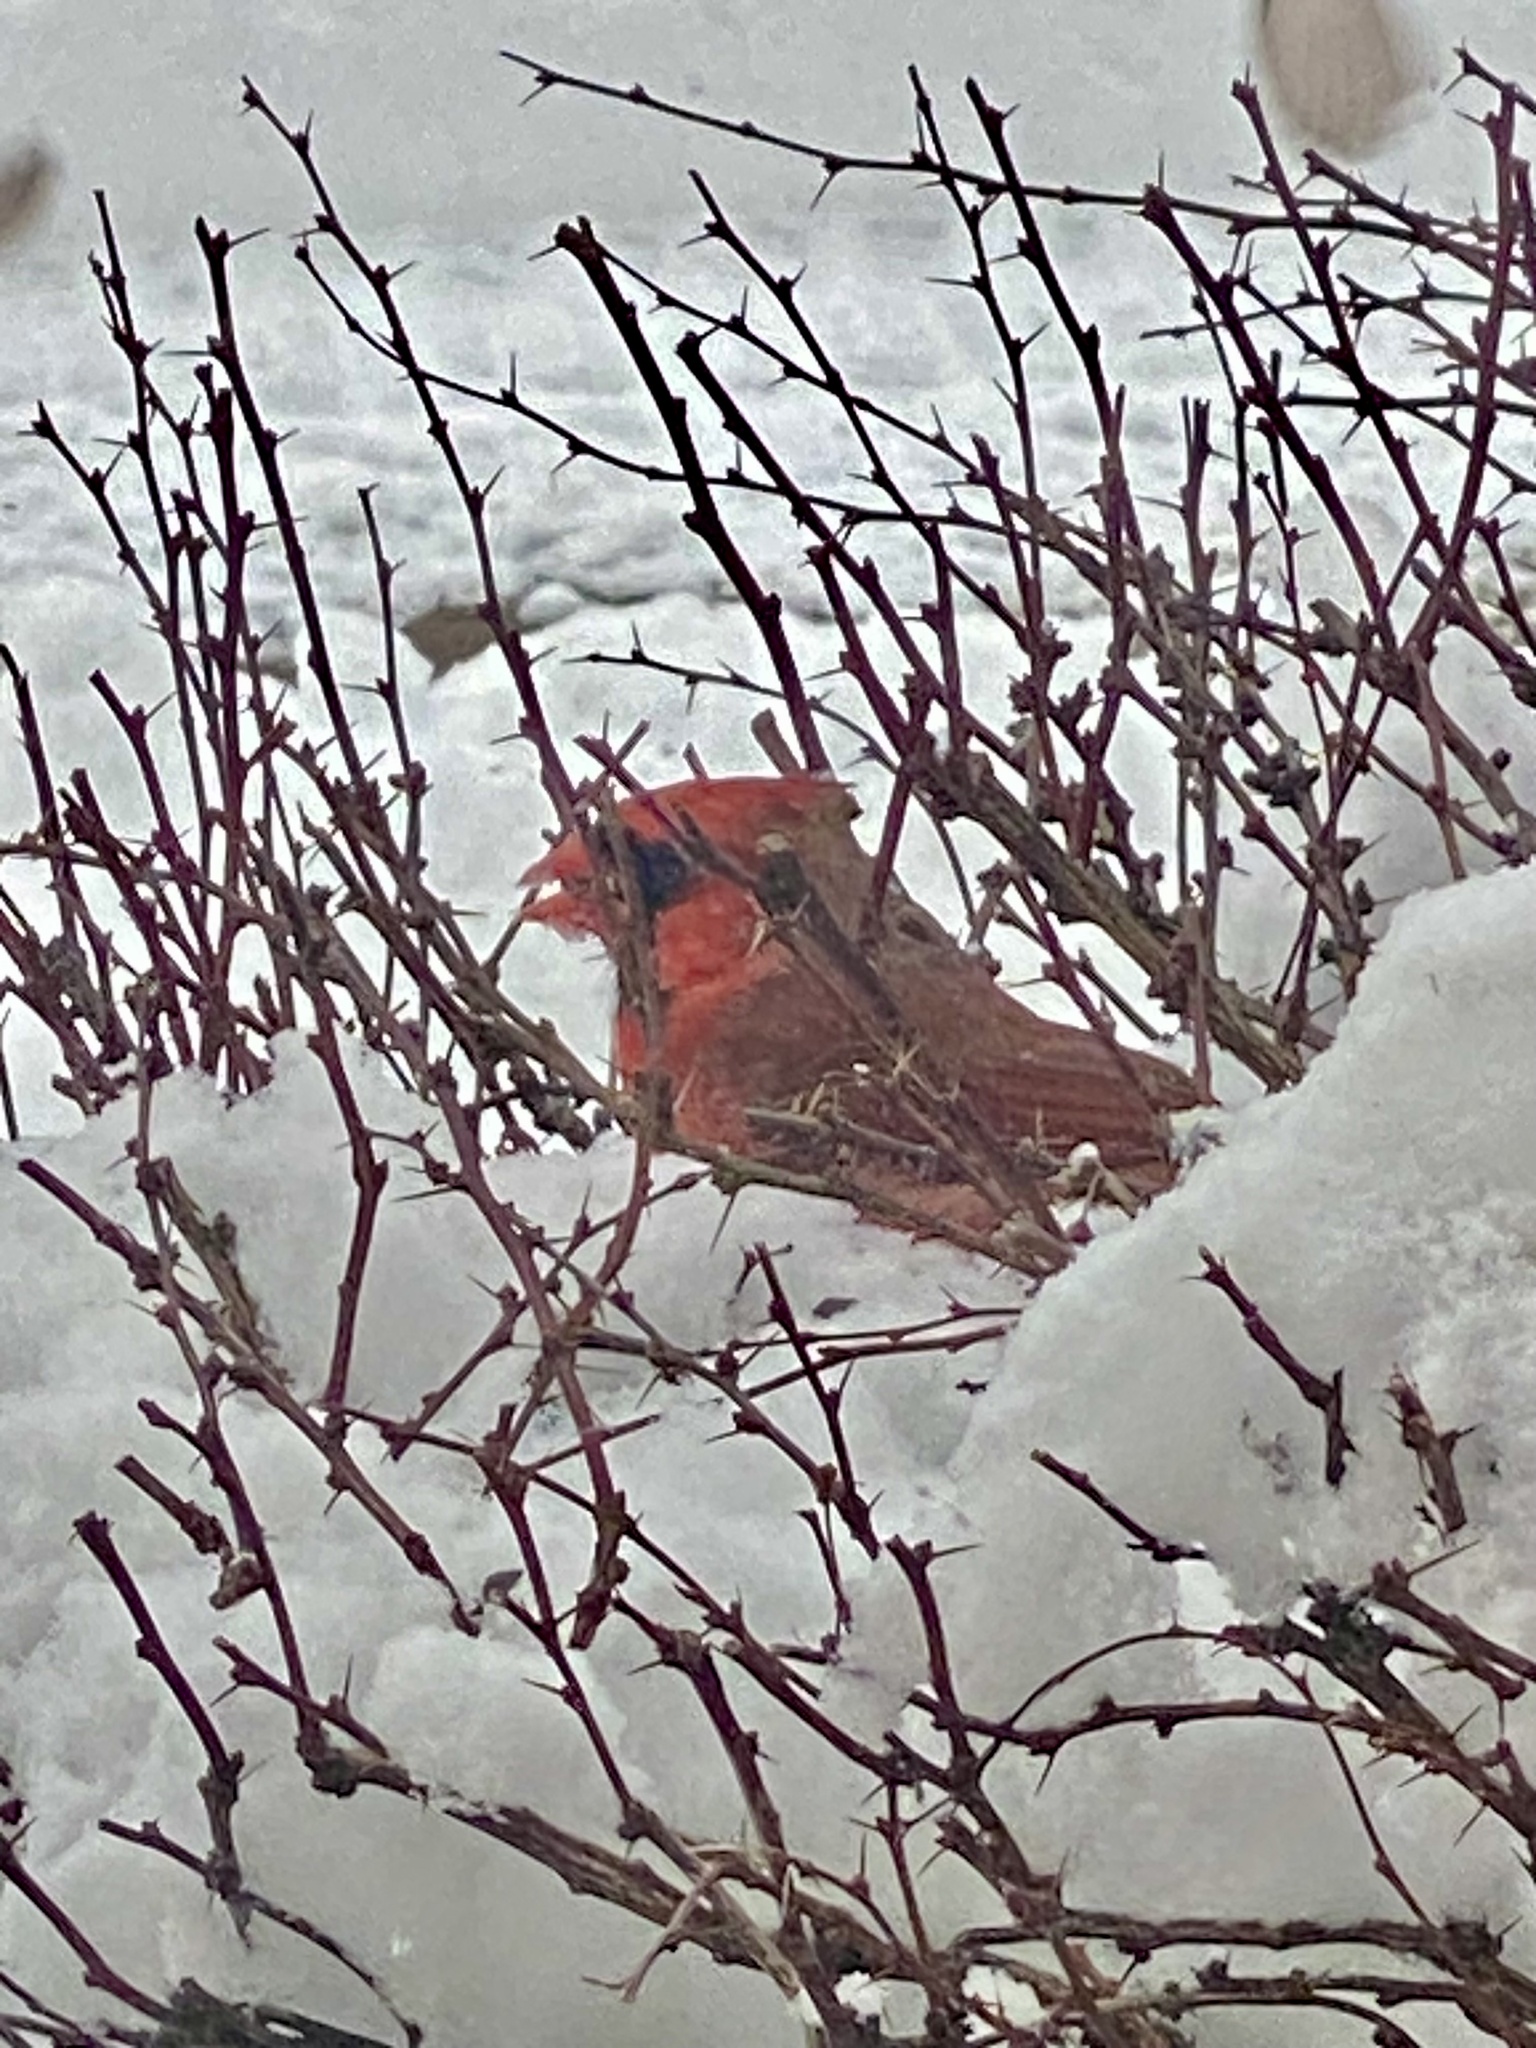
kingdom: Animalia
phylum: Chordata
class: Aves
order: Passeriformes
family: Cardinalidae
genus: Cardinalis
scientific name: Cardinalis cardinalis
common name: Northern cardinal
